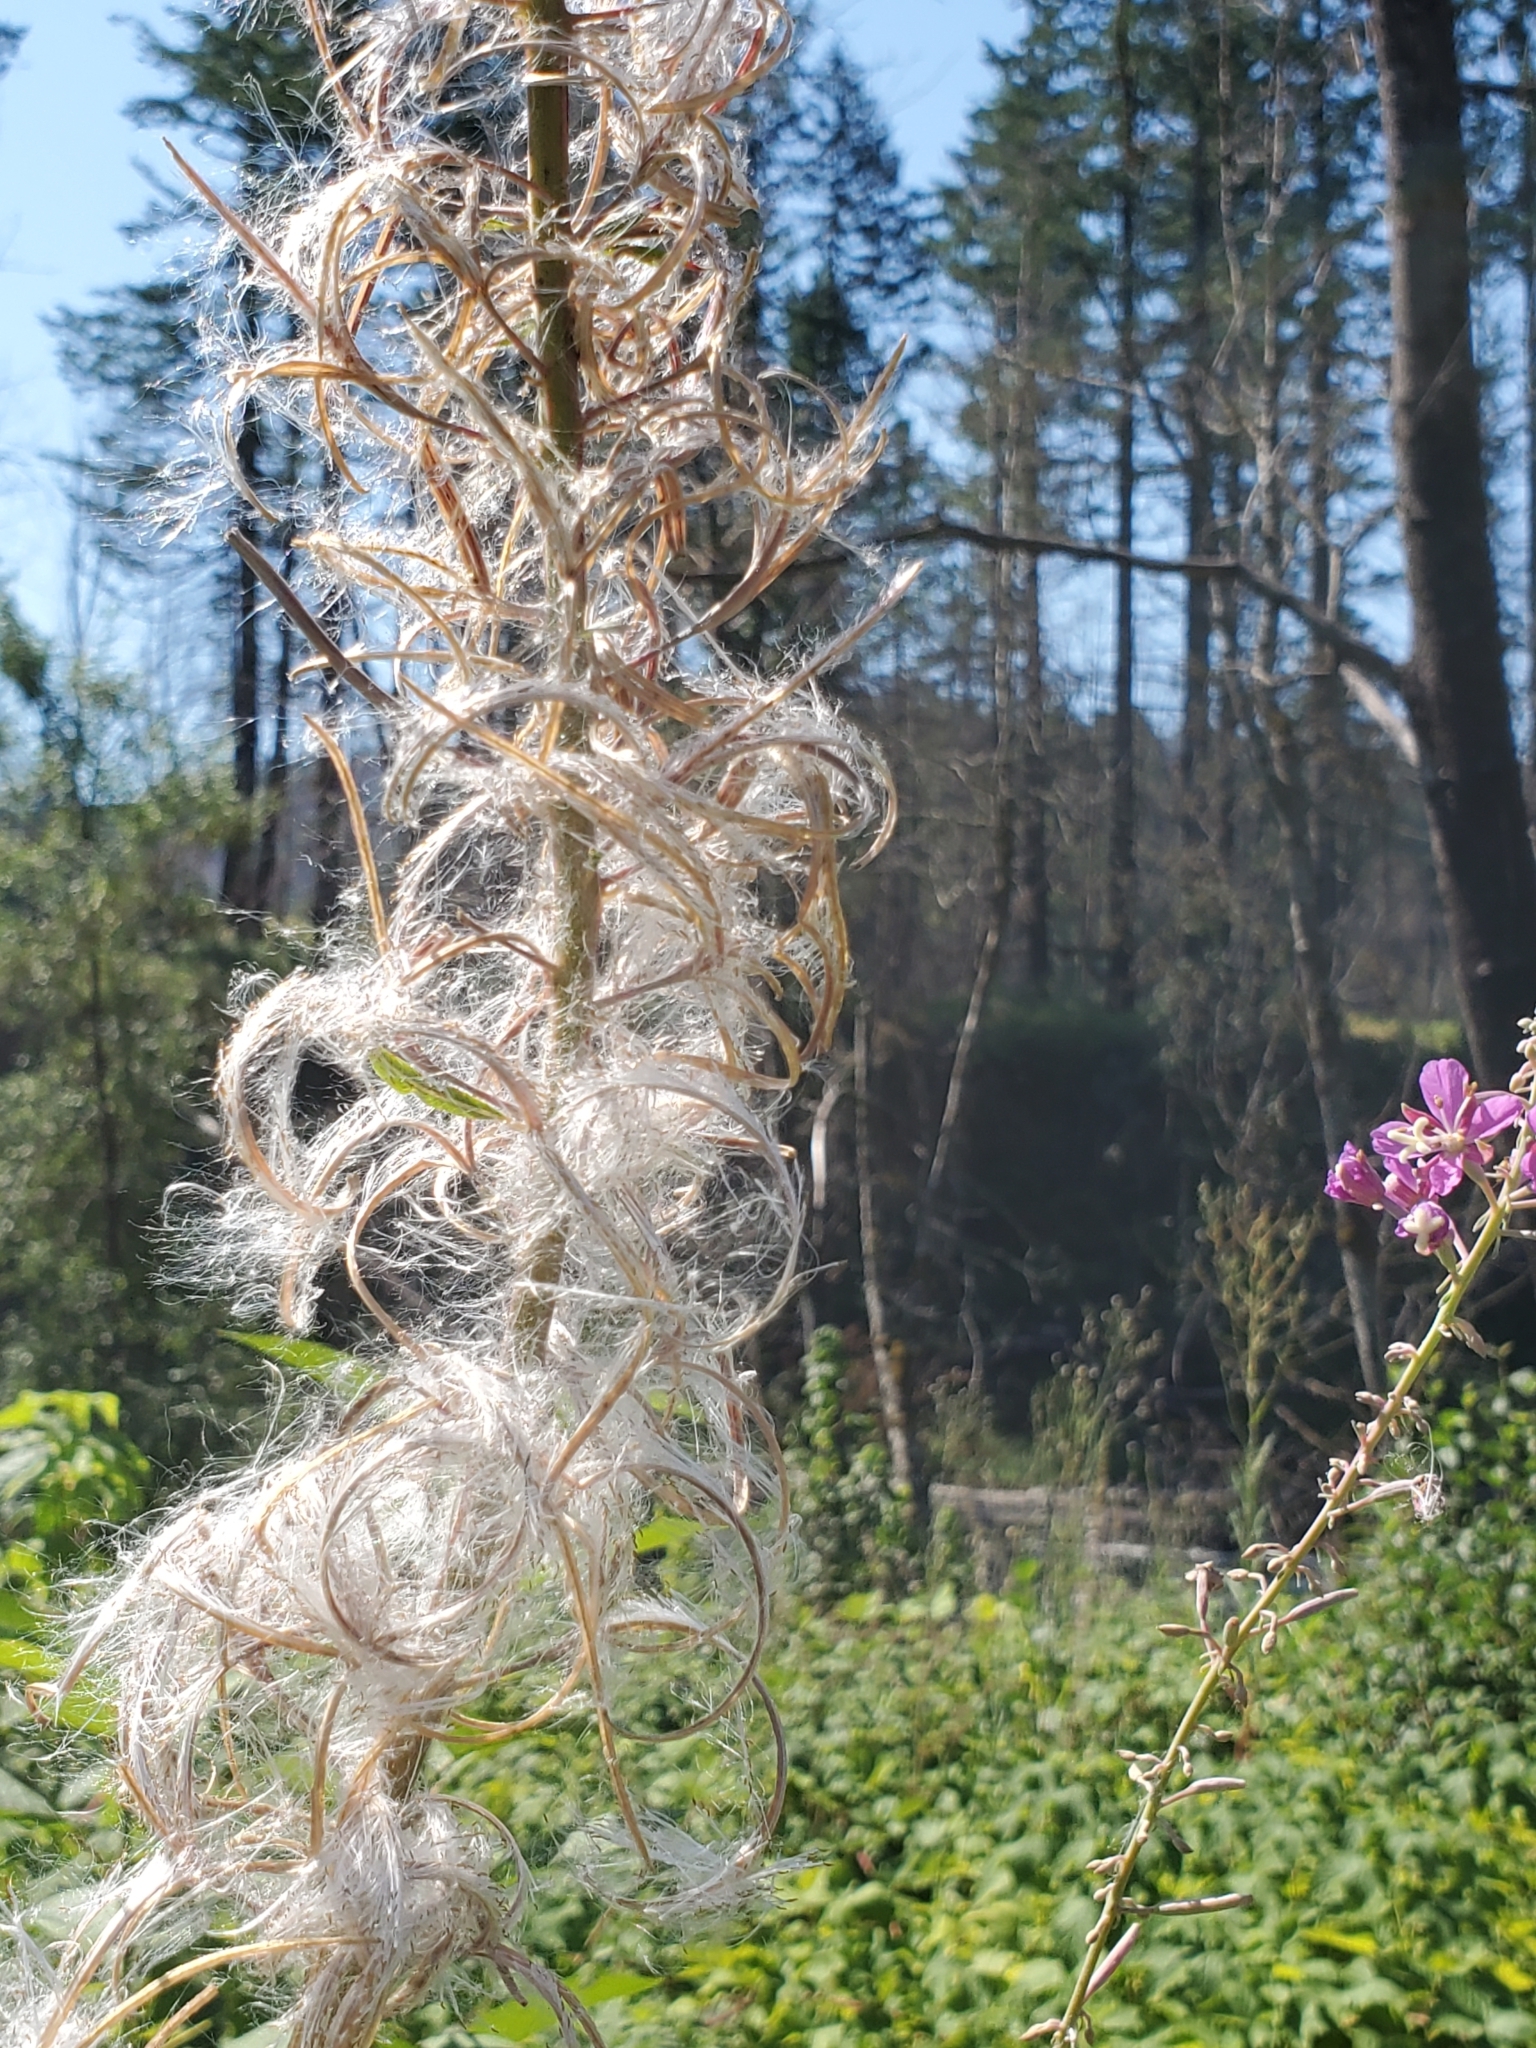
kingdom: Plantae
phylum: Tracheophyta
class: Magnoliopsida
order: Myrtales
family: Onagraceae
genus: Chamaenerion
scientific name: Chamaenerion angustifolium
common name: Fireweed
